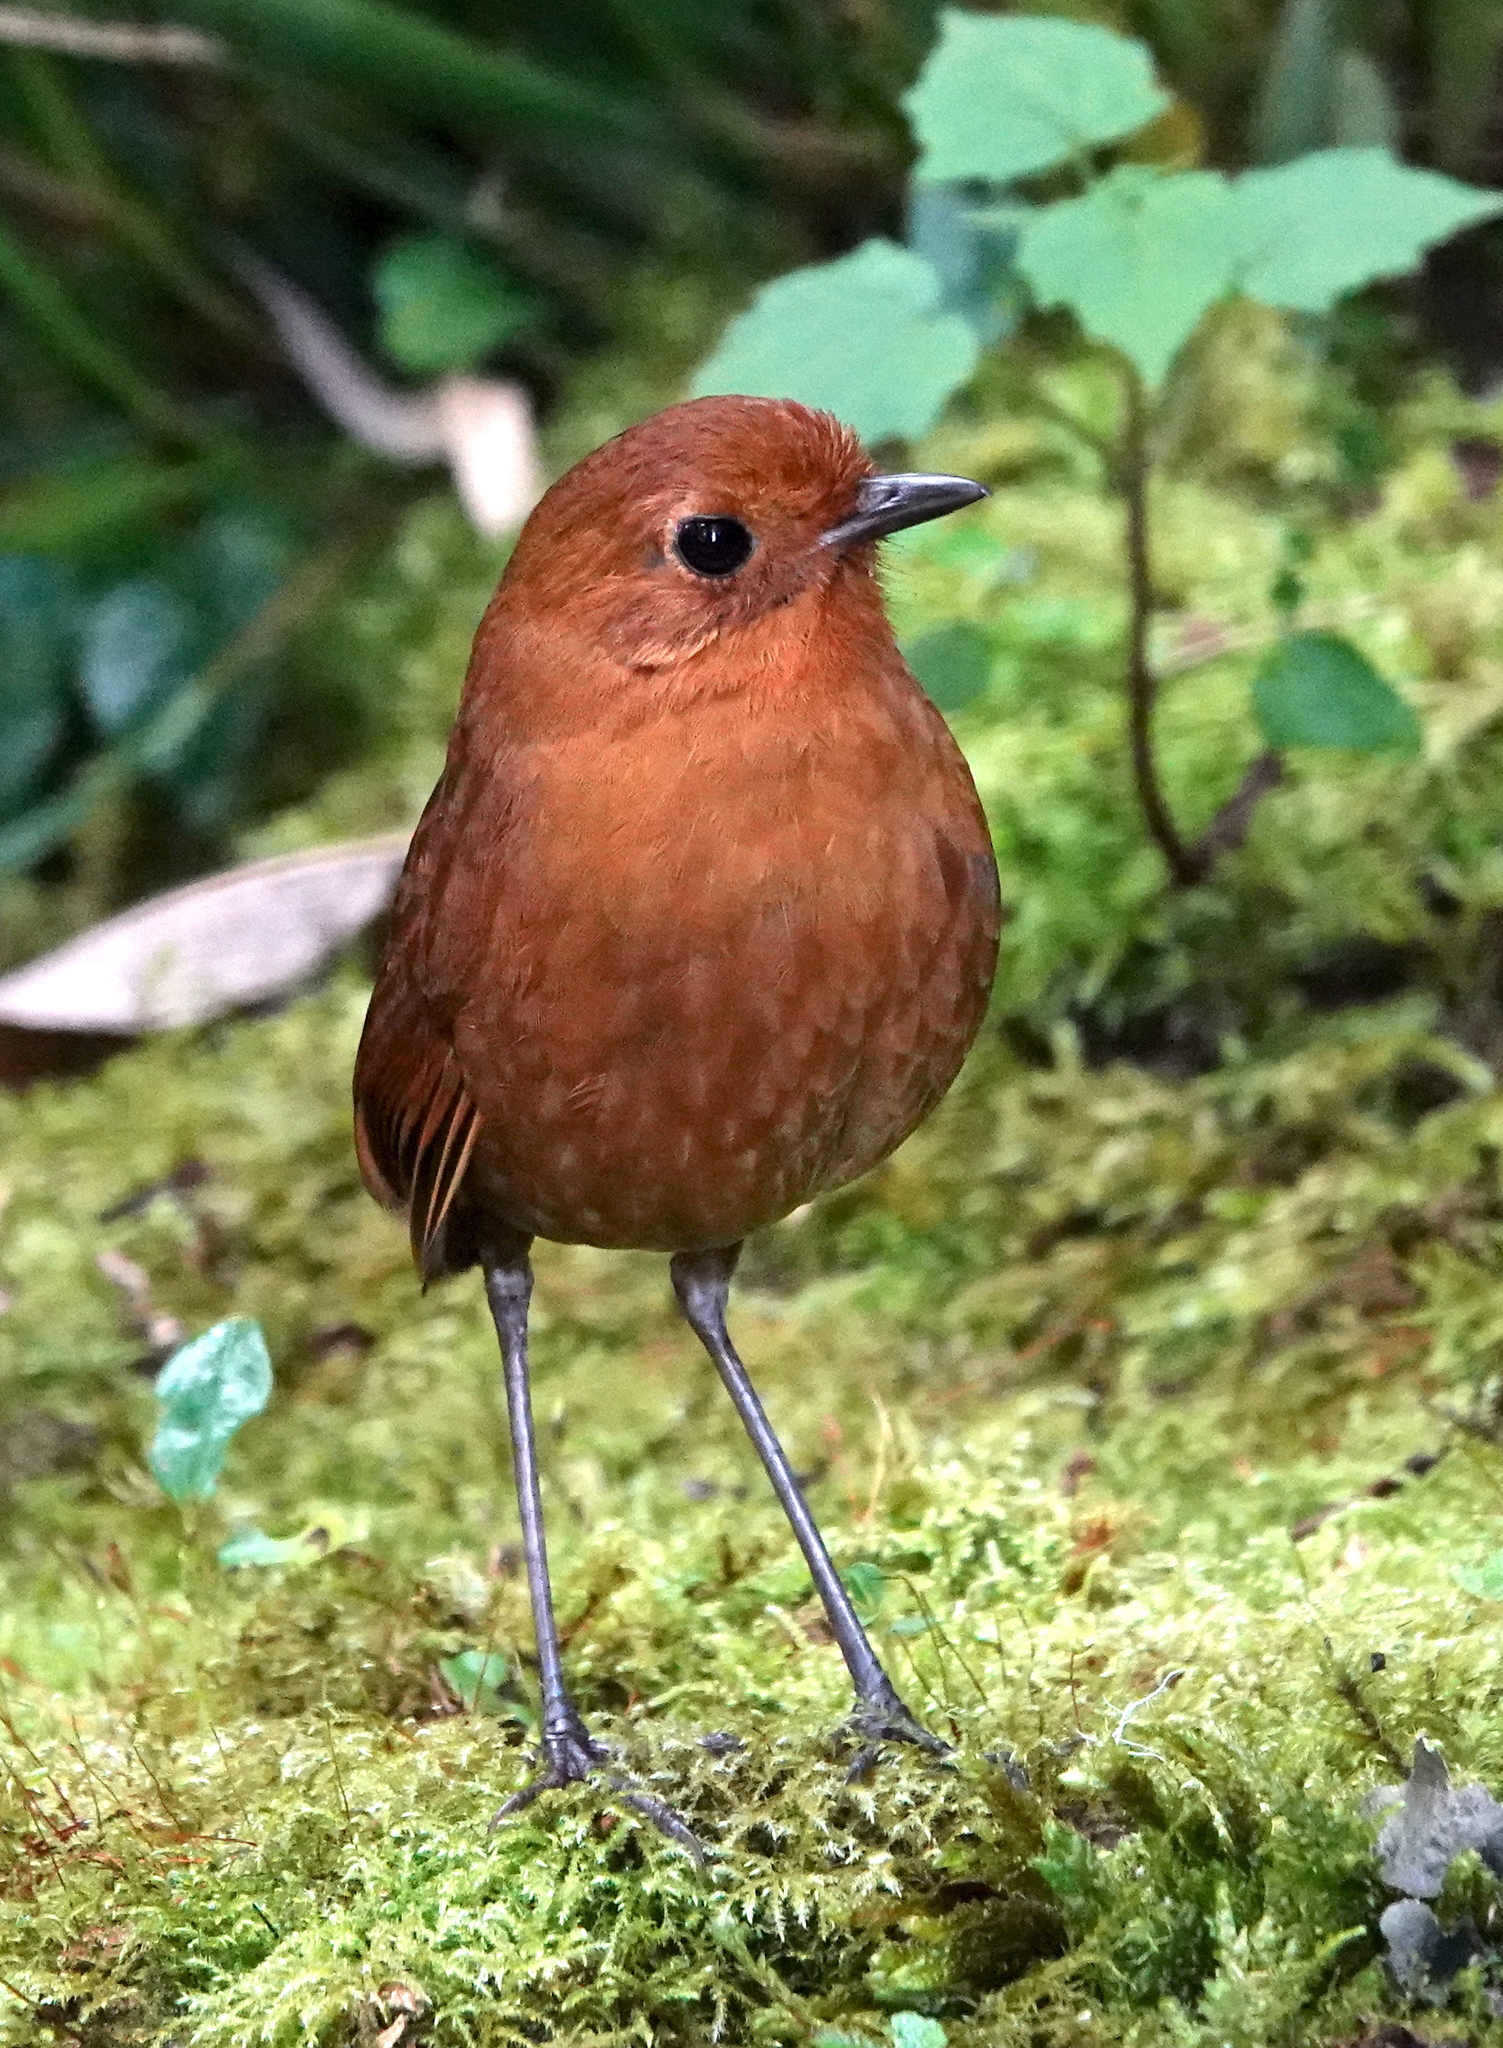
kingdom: Animalia
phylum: Chordata
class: Aves
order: Passeriformes
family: Grallariidae
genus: Grallaria
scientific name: Grallaria saturata
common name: Equatorial antpitta
